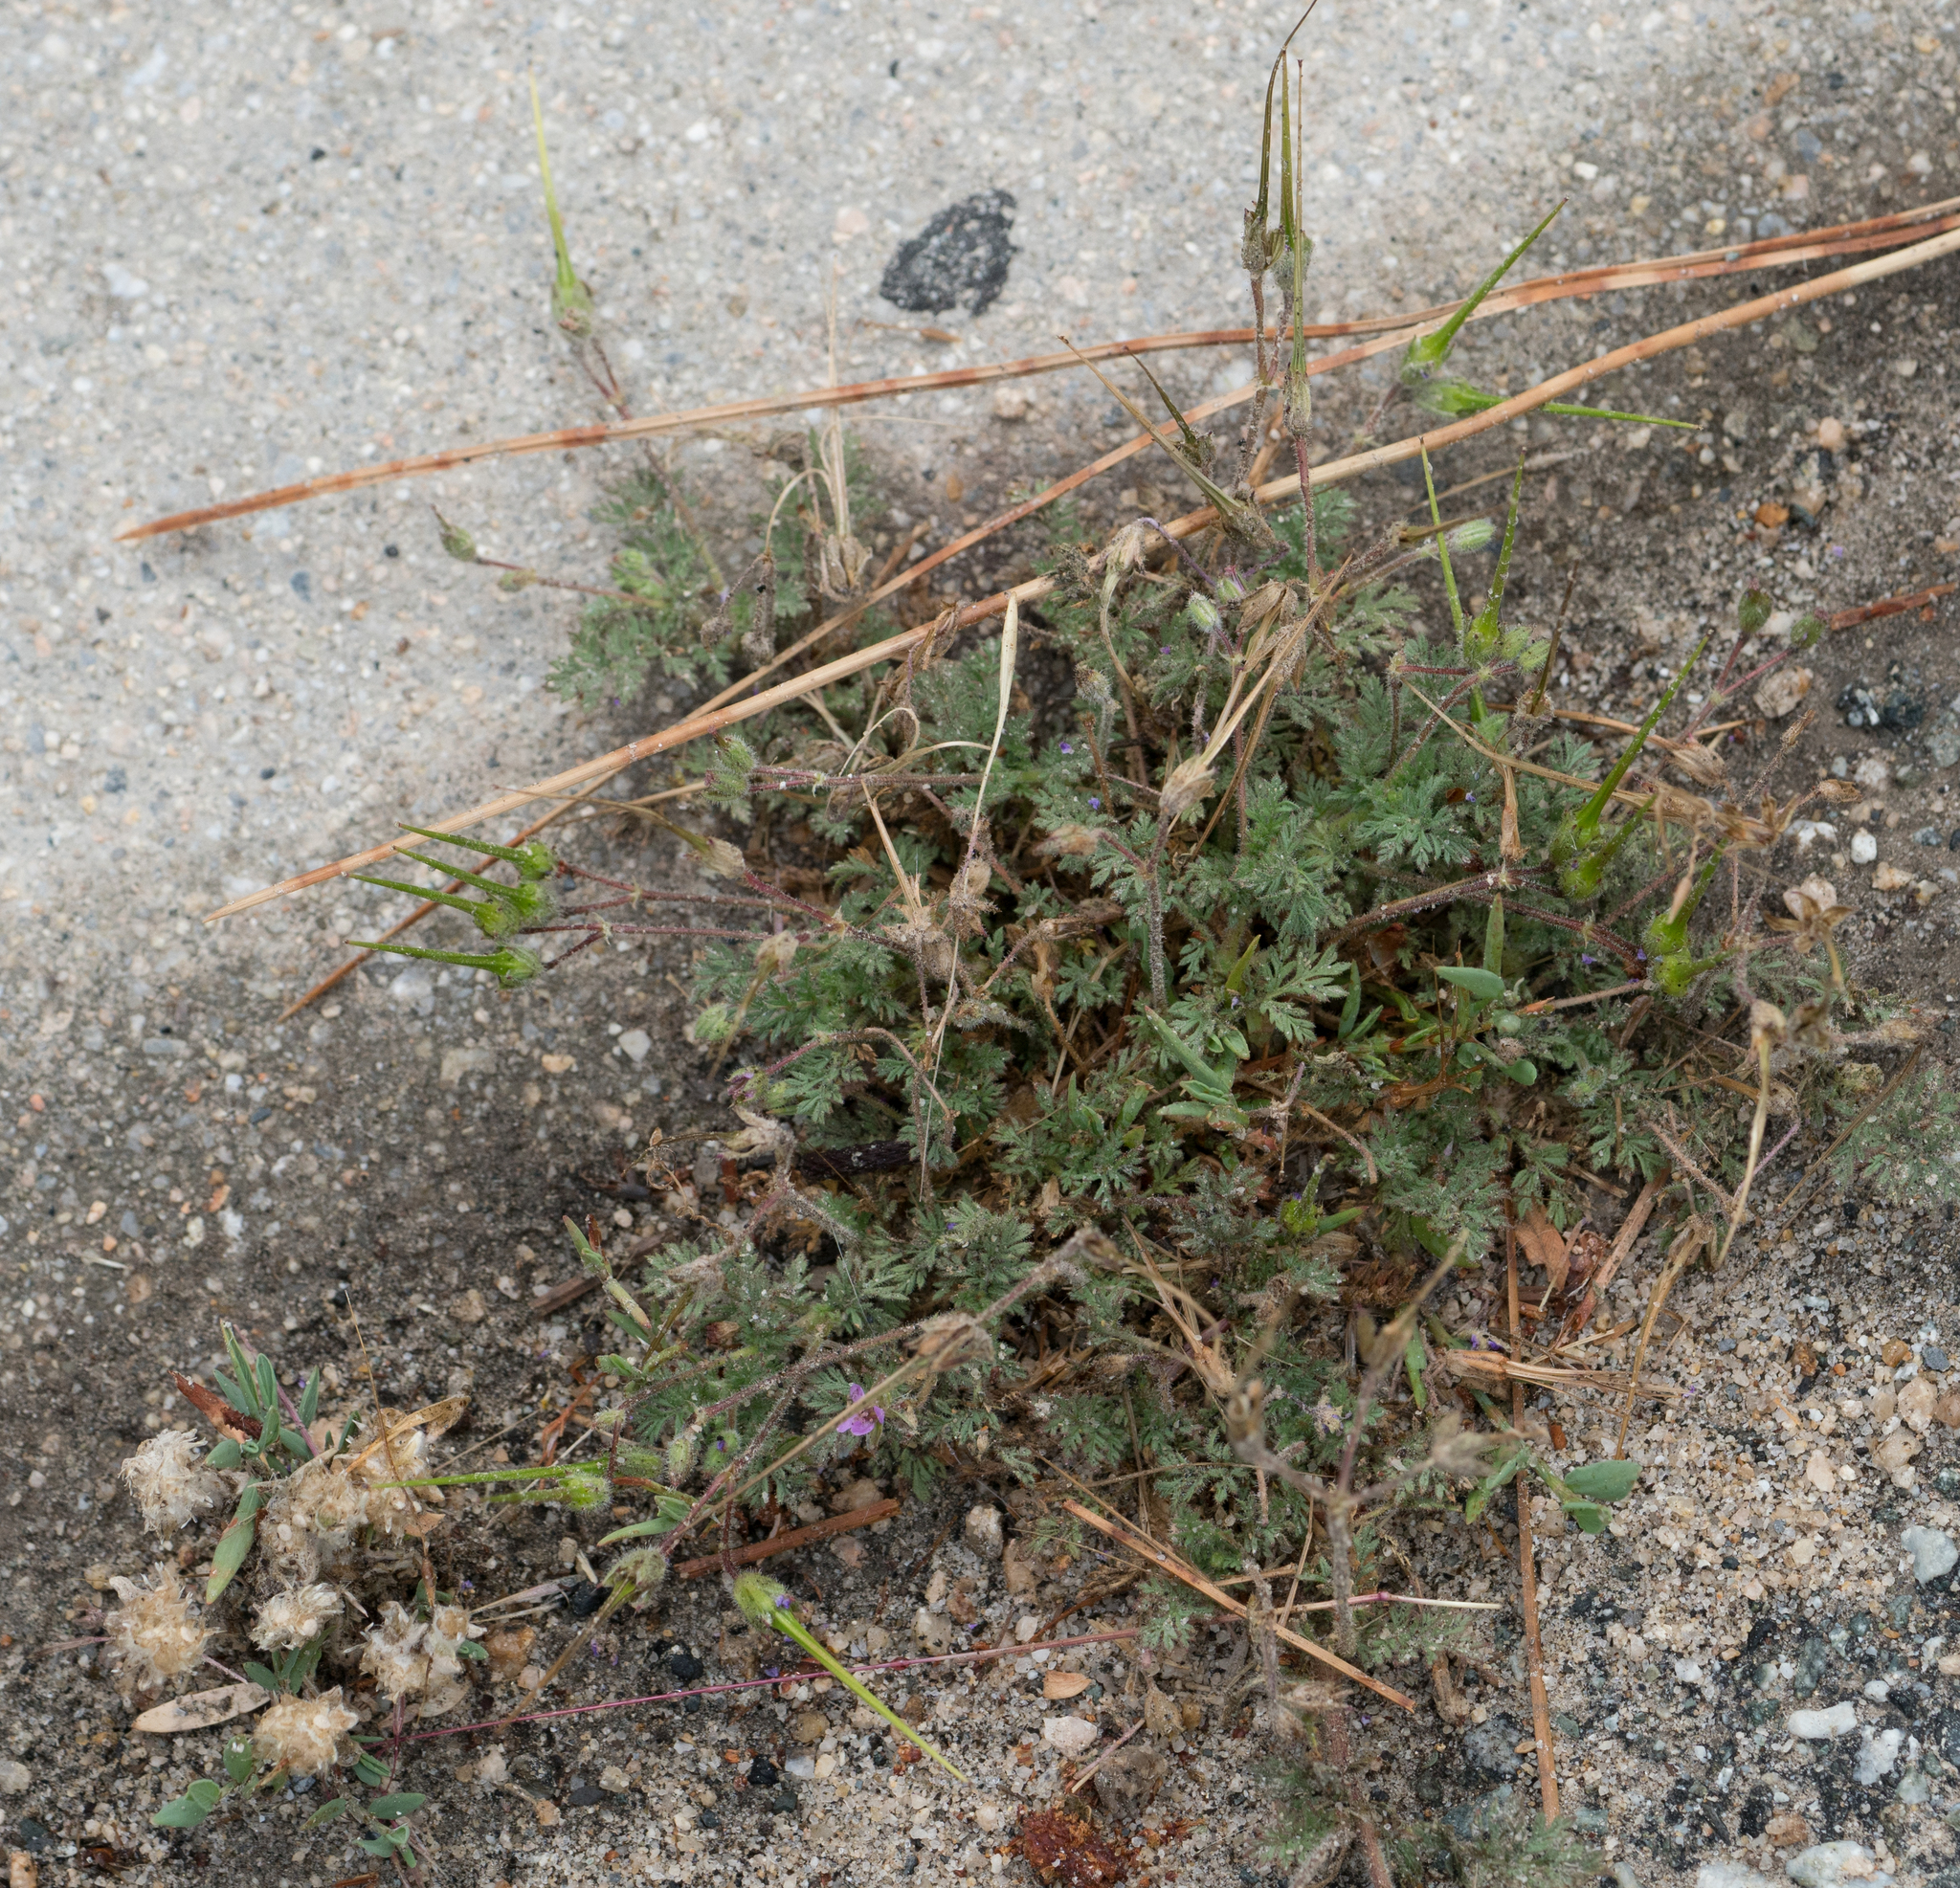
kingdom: Plantae
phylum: Tracheophyta
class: Magnoliopsida
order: Geraniales
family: Geraniaceae
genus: Erodium
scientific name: Erodium cicutarium
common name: Common stork's-bill
